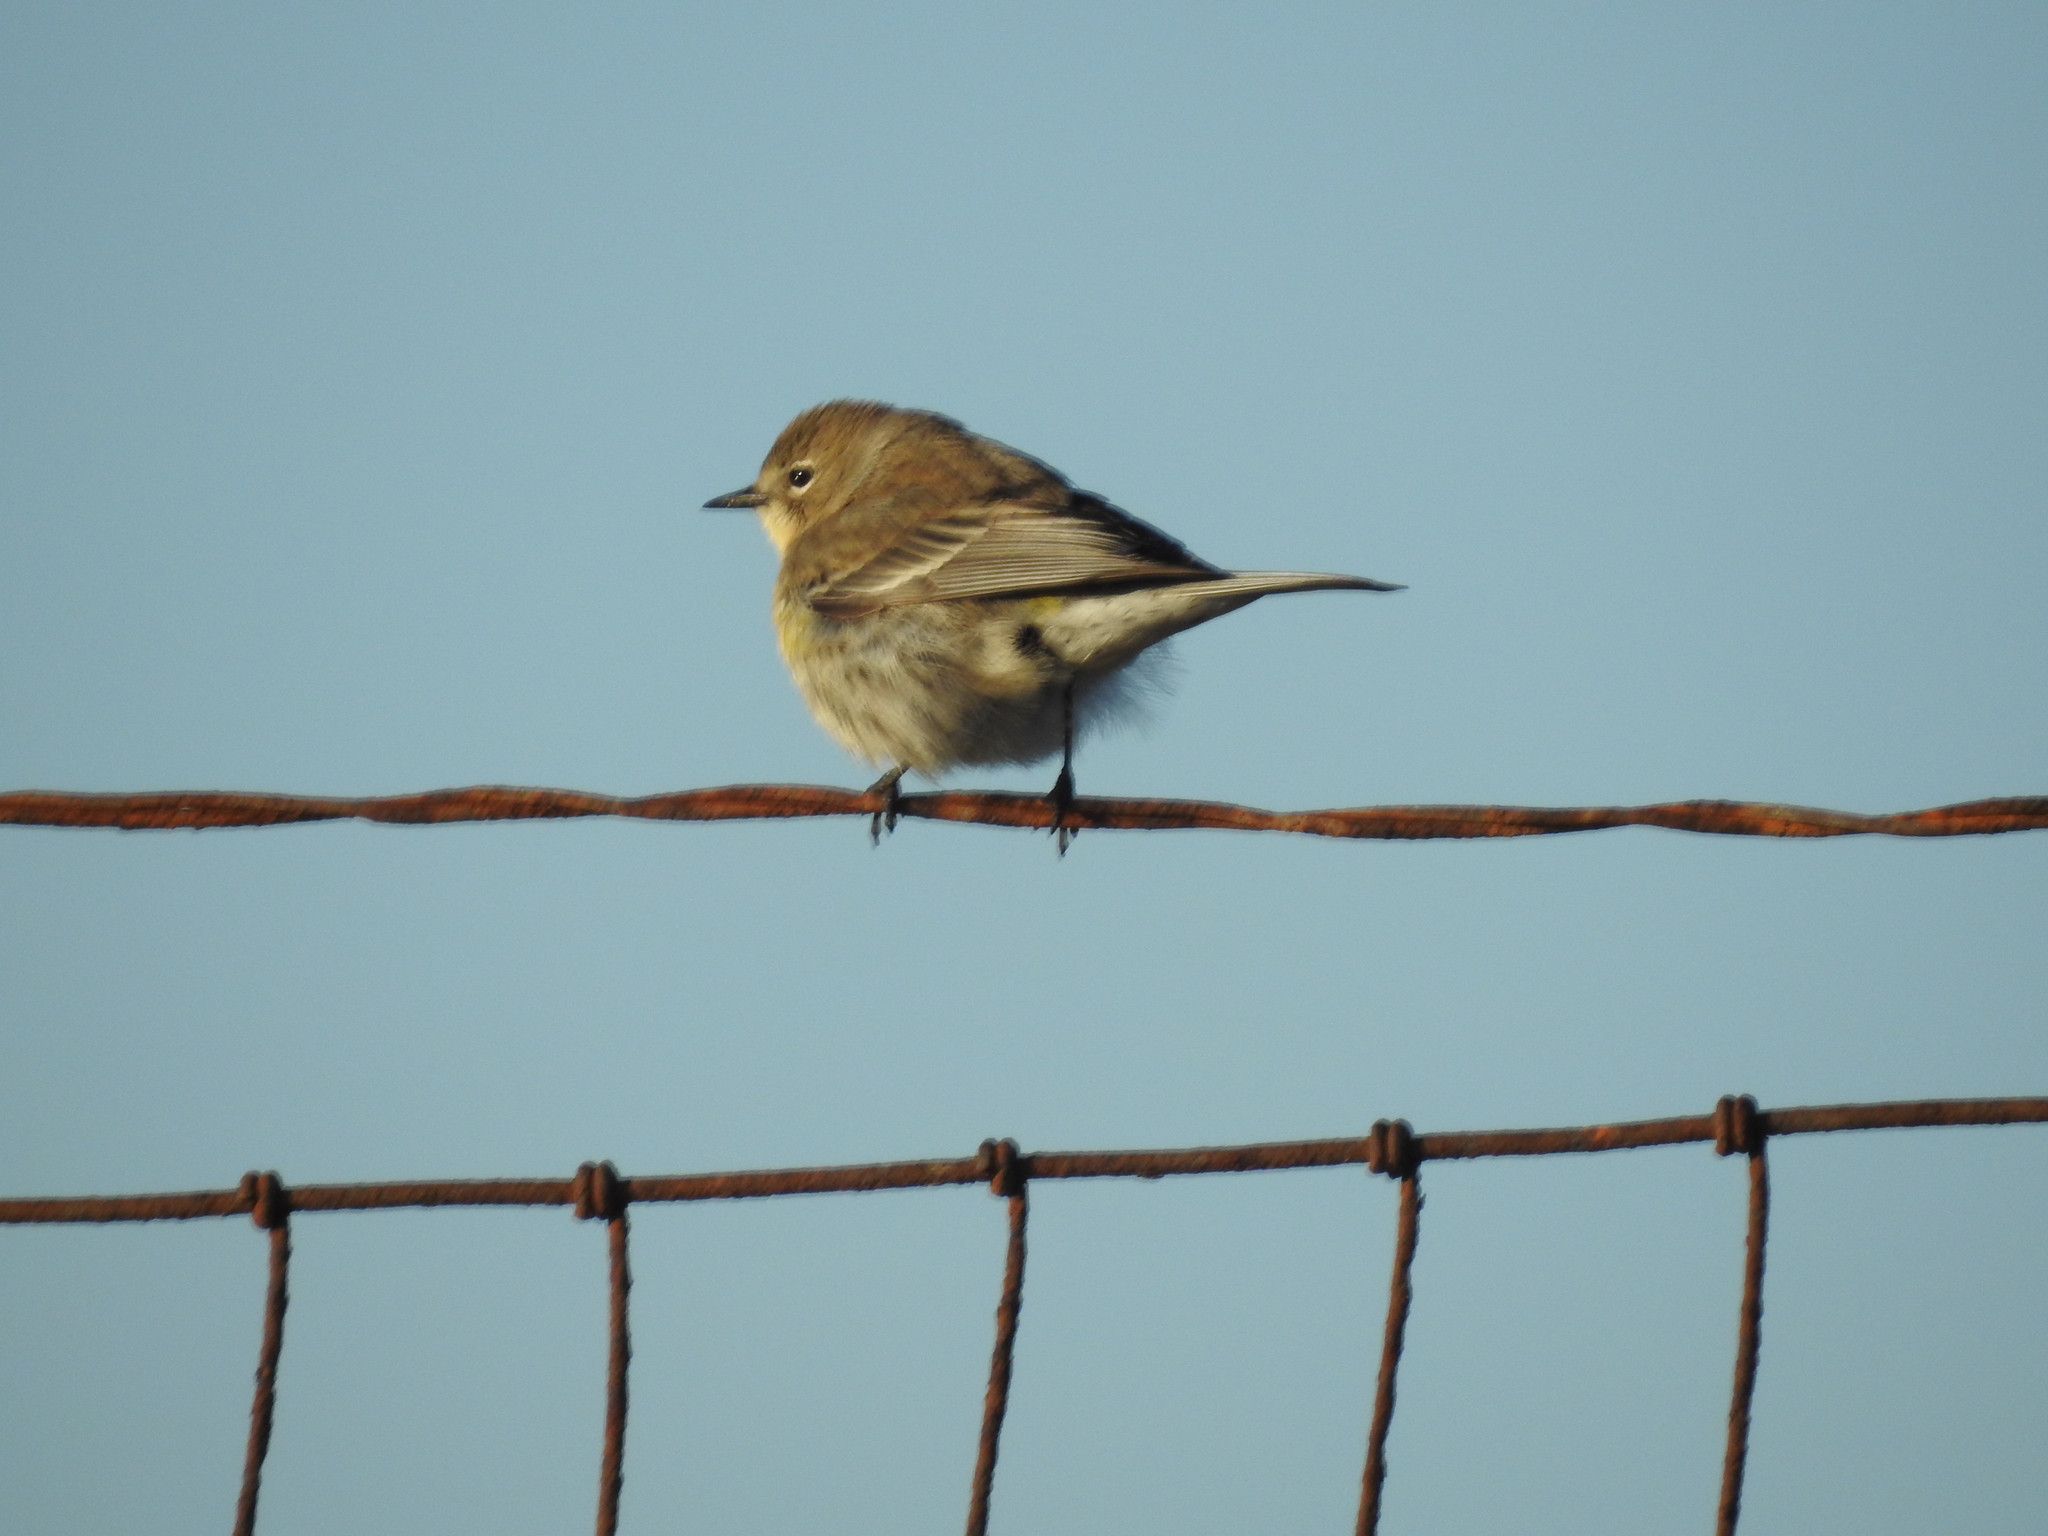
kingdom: Animalia
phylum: Chordata
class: Aves
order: Passeriformes
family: Parulidae
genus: Setophaga
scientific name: Setophaga coronata
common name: Myrtle warbler
